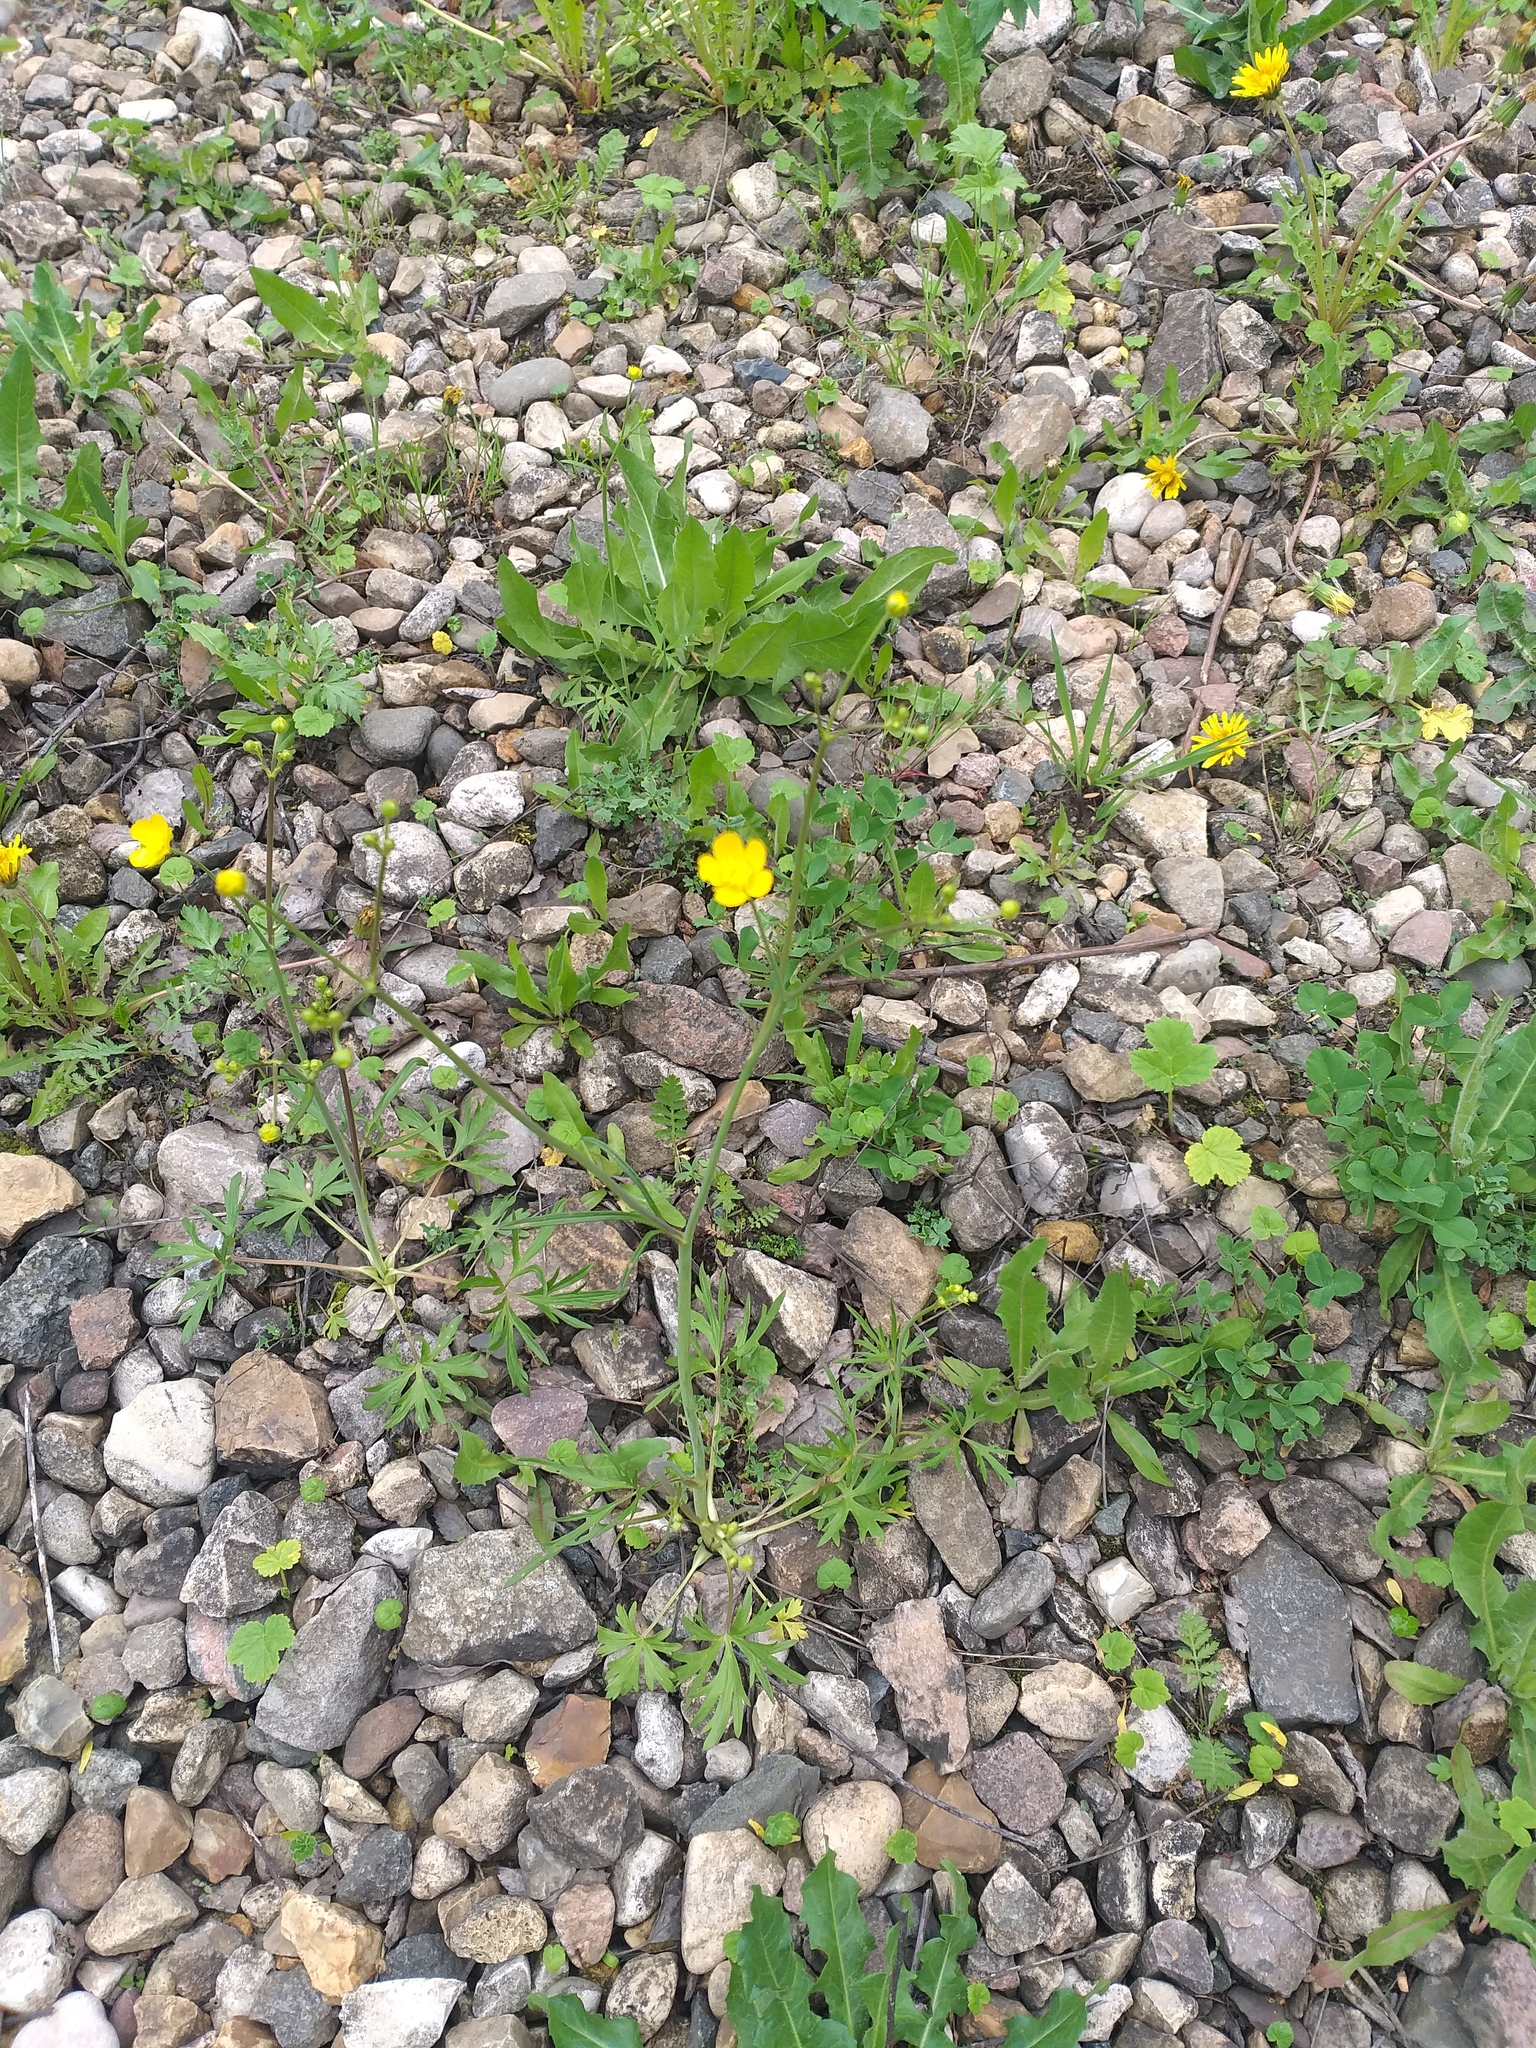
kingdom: Plantae
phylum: Tracheophyta
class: Magnoliopsida
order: Ranunculales
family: Ranunculaceae
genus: Ranunculus
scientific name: Ranunculus acris
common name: Meadow buttercup
